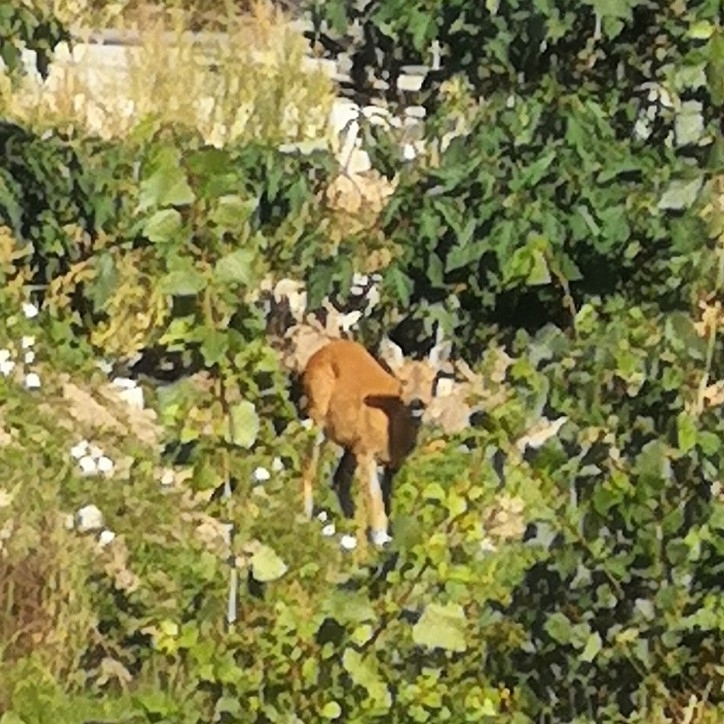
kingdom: Animalia
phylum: Chordata
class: Mammalia
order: Artiodactyla
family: Cervidae
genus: Capreolus
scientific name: Capreolus capreolus
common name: Western roe deer
